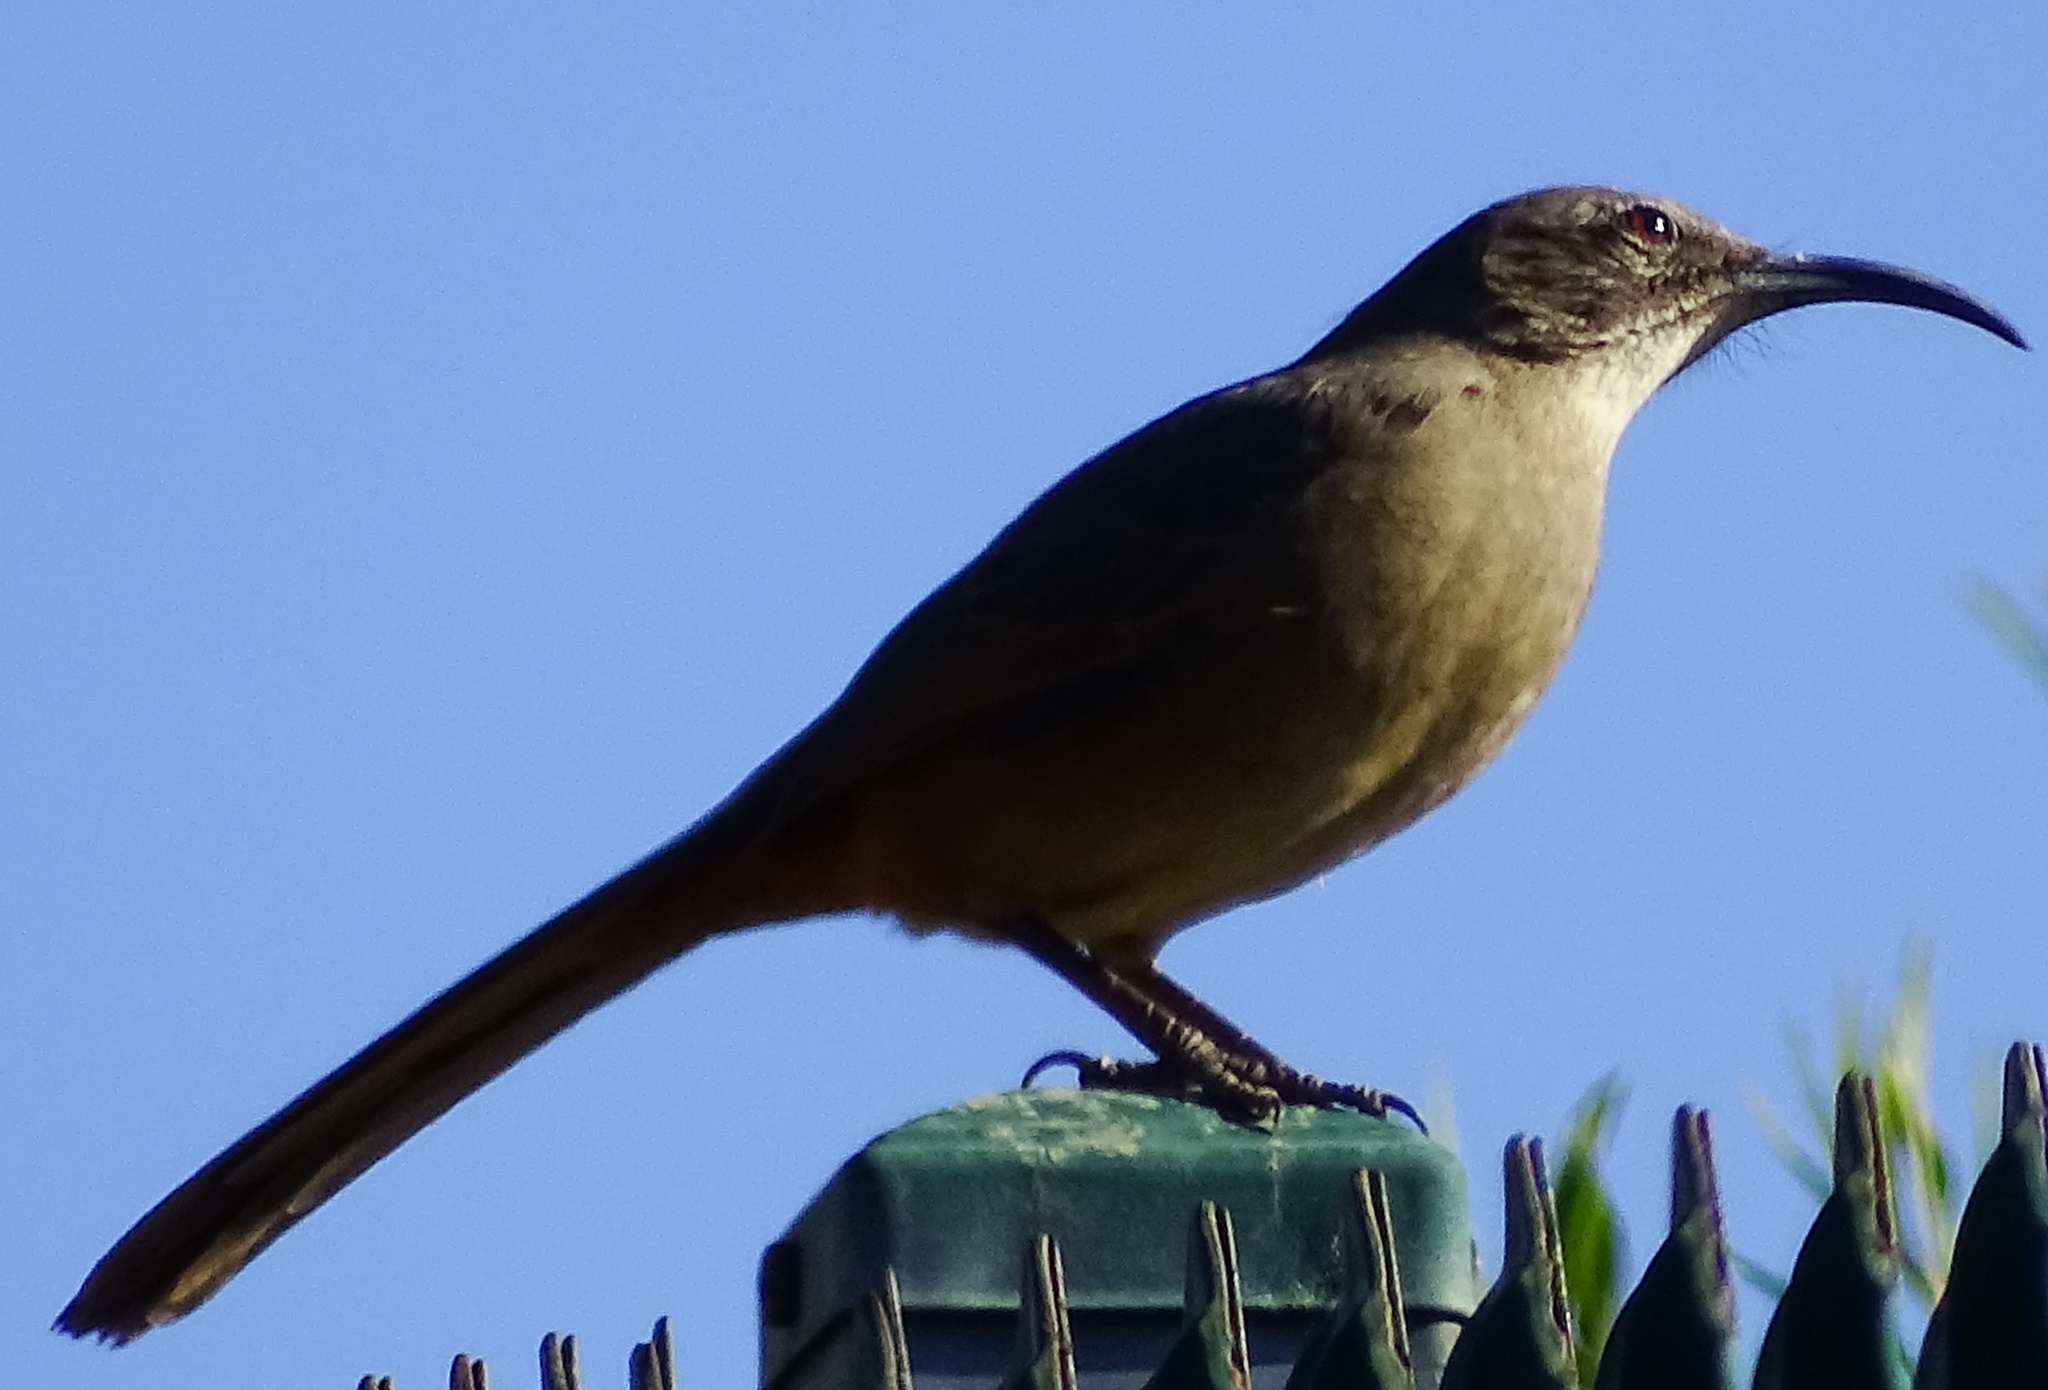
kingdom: Animalia
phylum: Chordata
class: Aves
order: Passeriformes
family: Mimidae
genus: Toxostoma
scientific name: Toxostoma redivivum
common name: California thrasher
